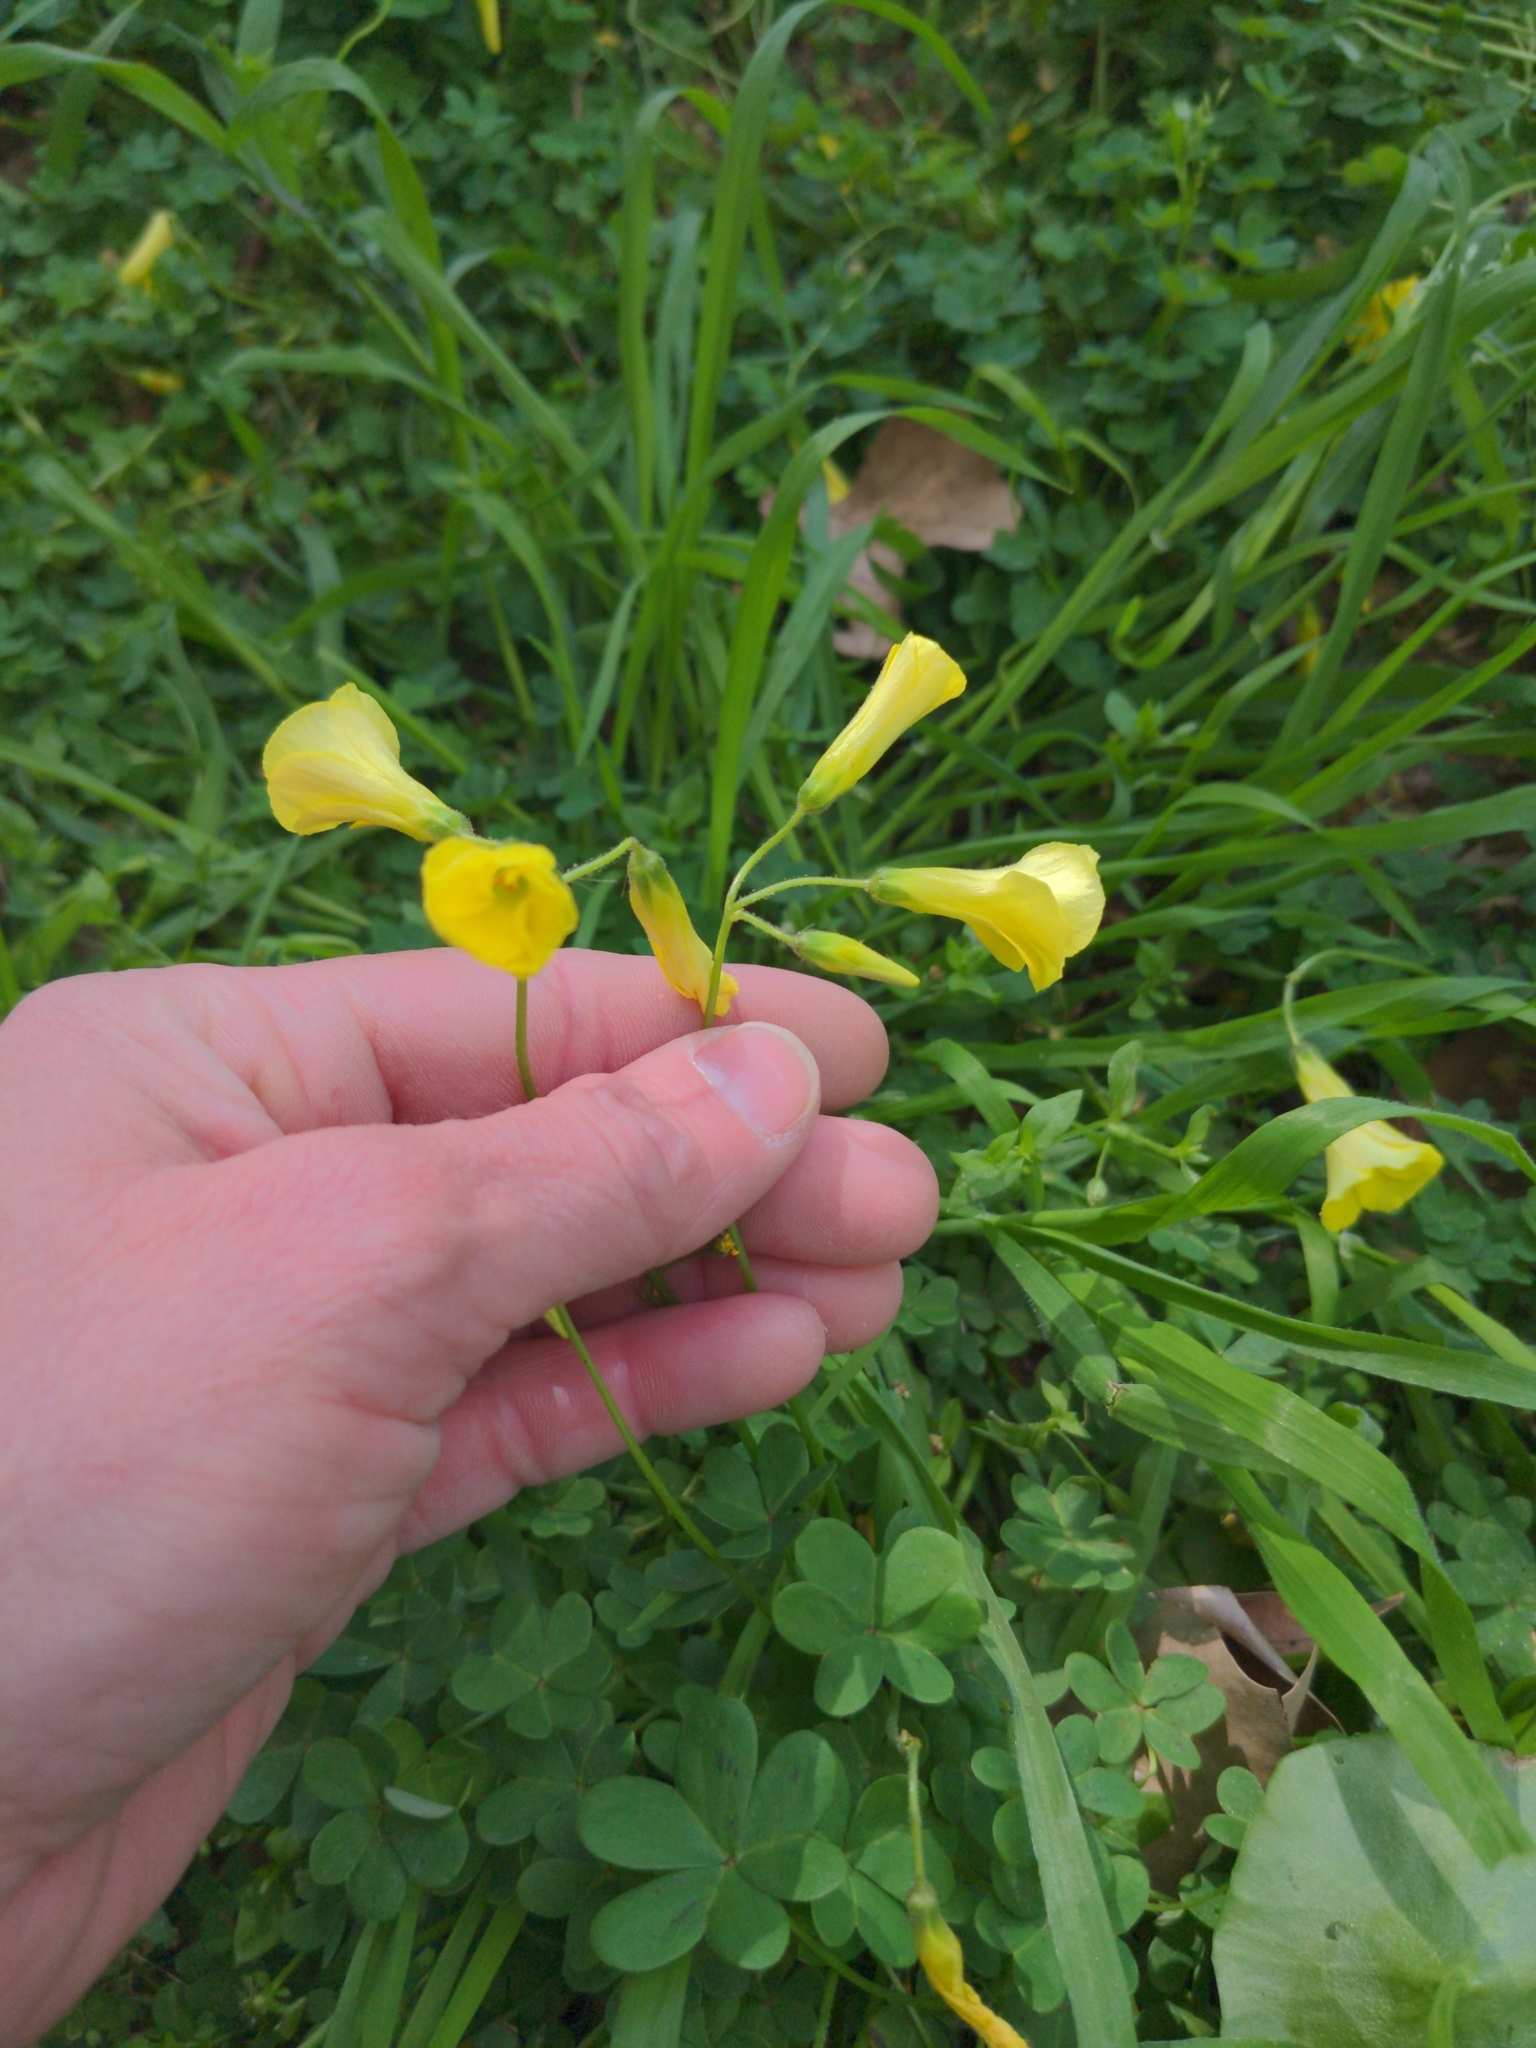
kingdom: Plantae
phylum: Tracheophyta
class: Magnoliopsida
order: Oxalidales
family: Oxalidaceae
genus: Oxalis
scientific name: Oxalis pes-caprae
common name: Bermuda-buttercup
